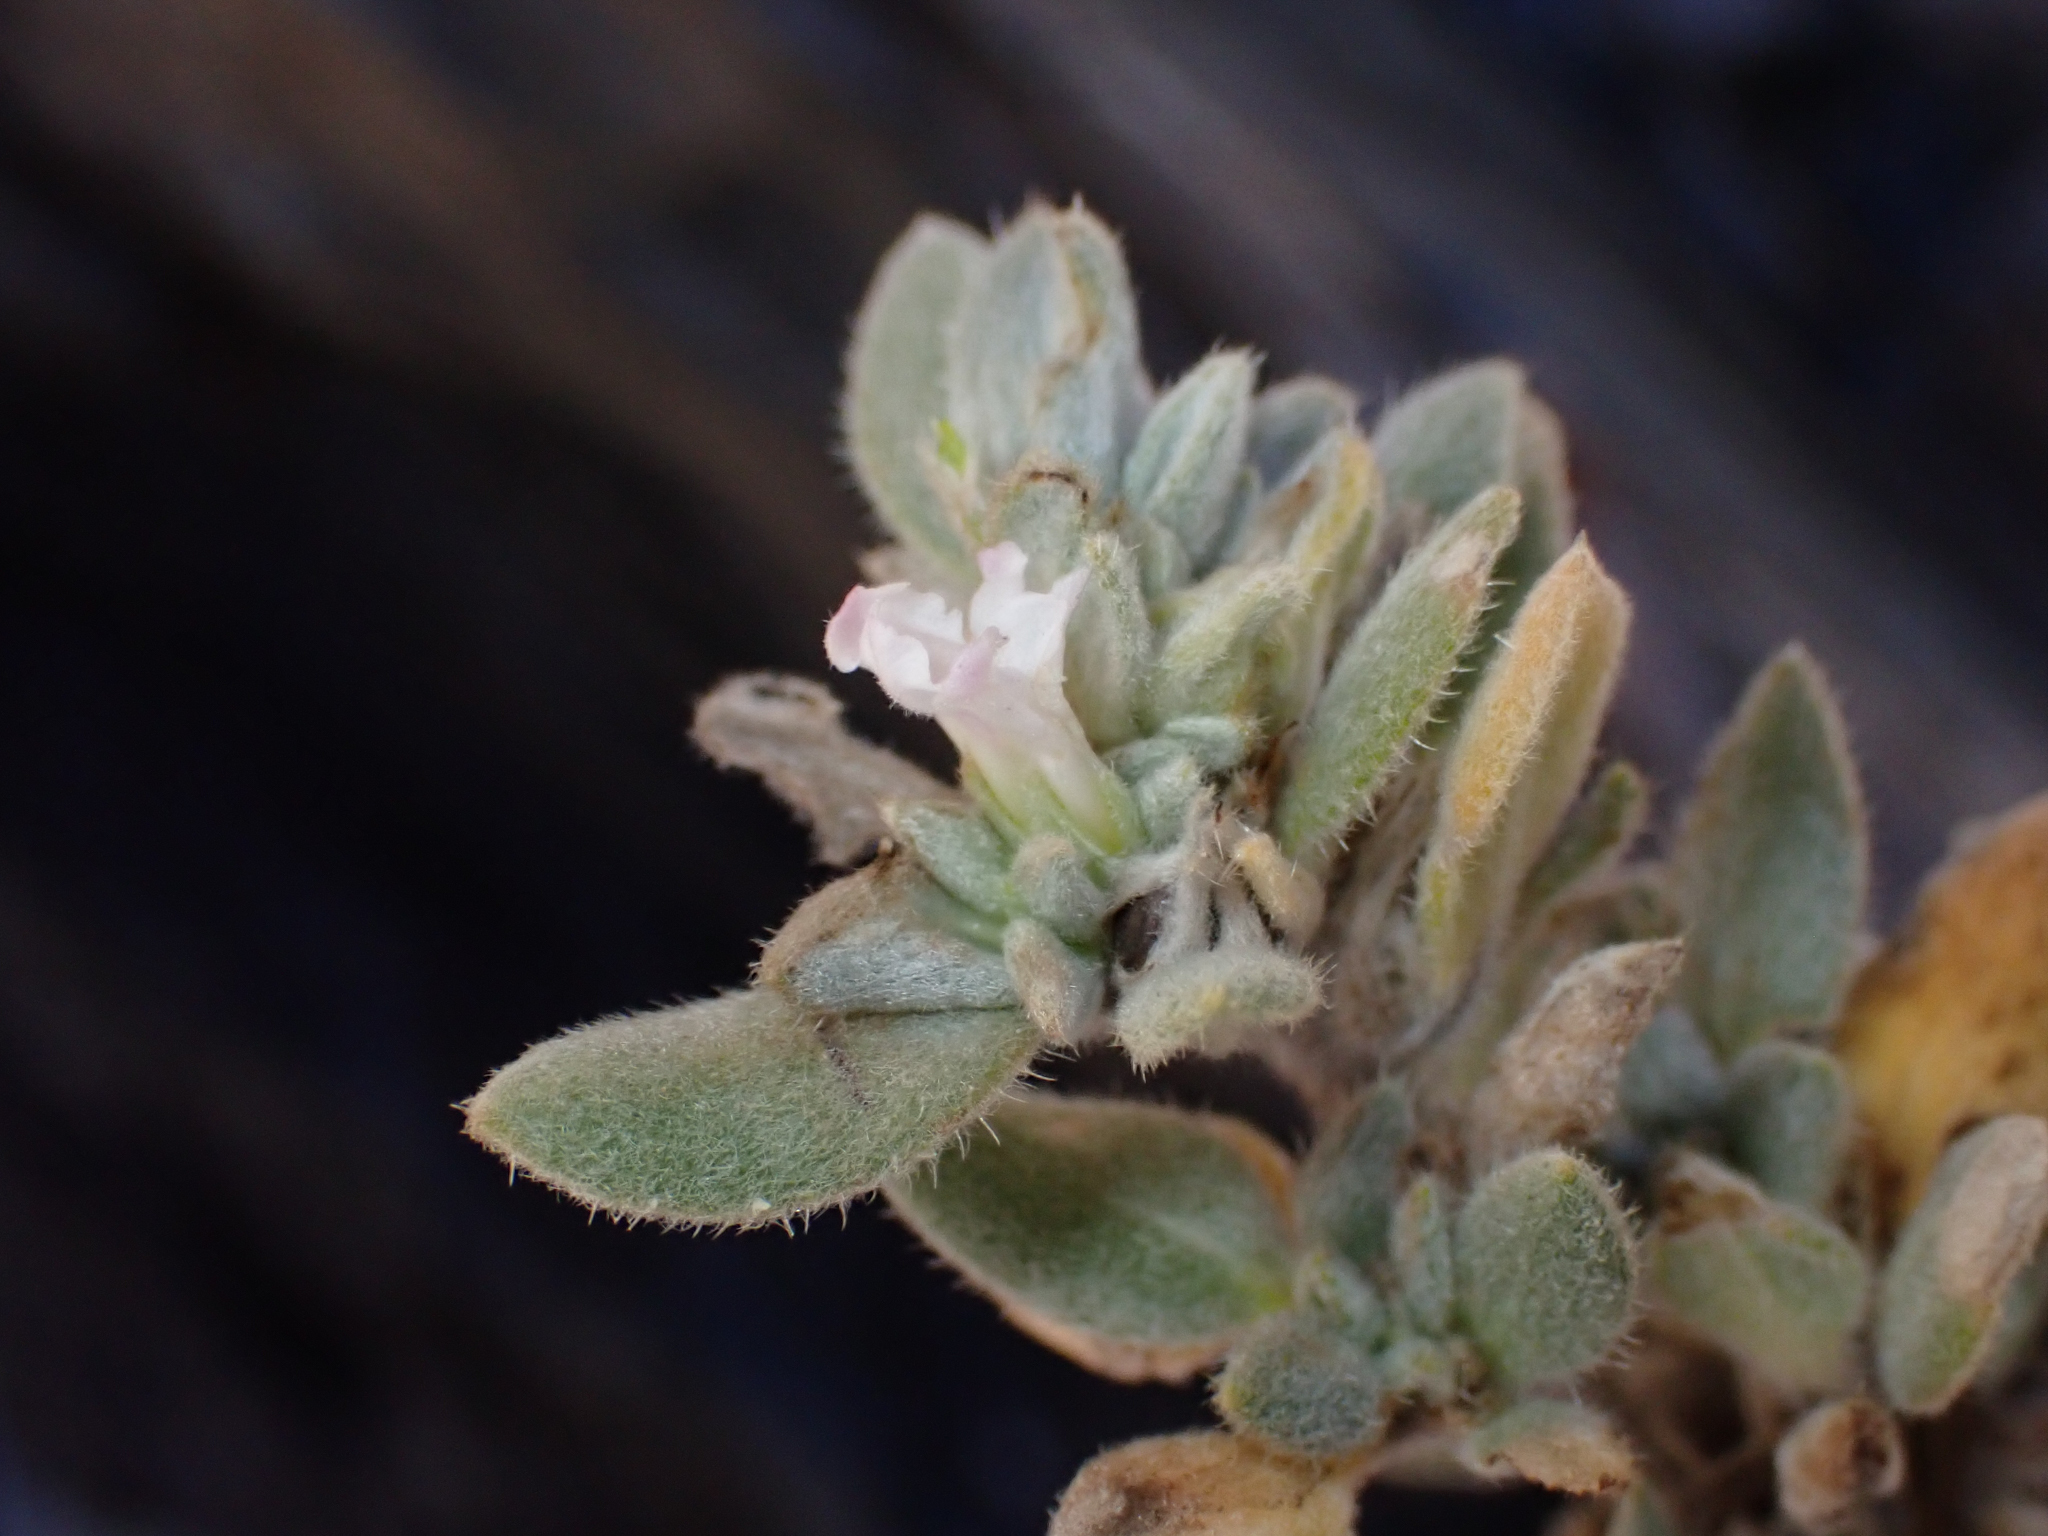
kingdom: Plantae
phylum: Tracheophyta
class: Magnoliopsida
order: Boraginales
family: Ehretiaceae
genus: Tiquilia
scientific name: Tiquilia canescens
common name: Hairy tiquilia
